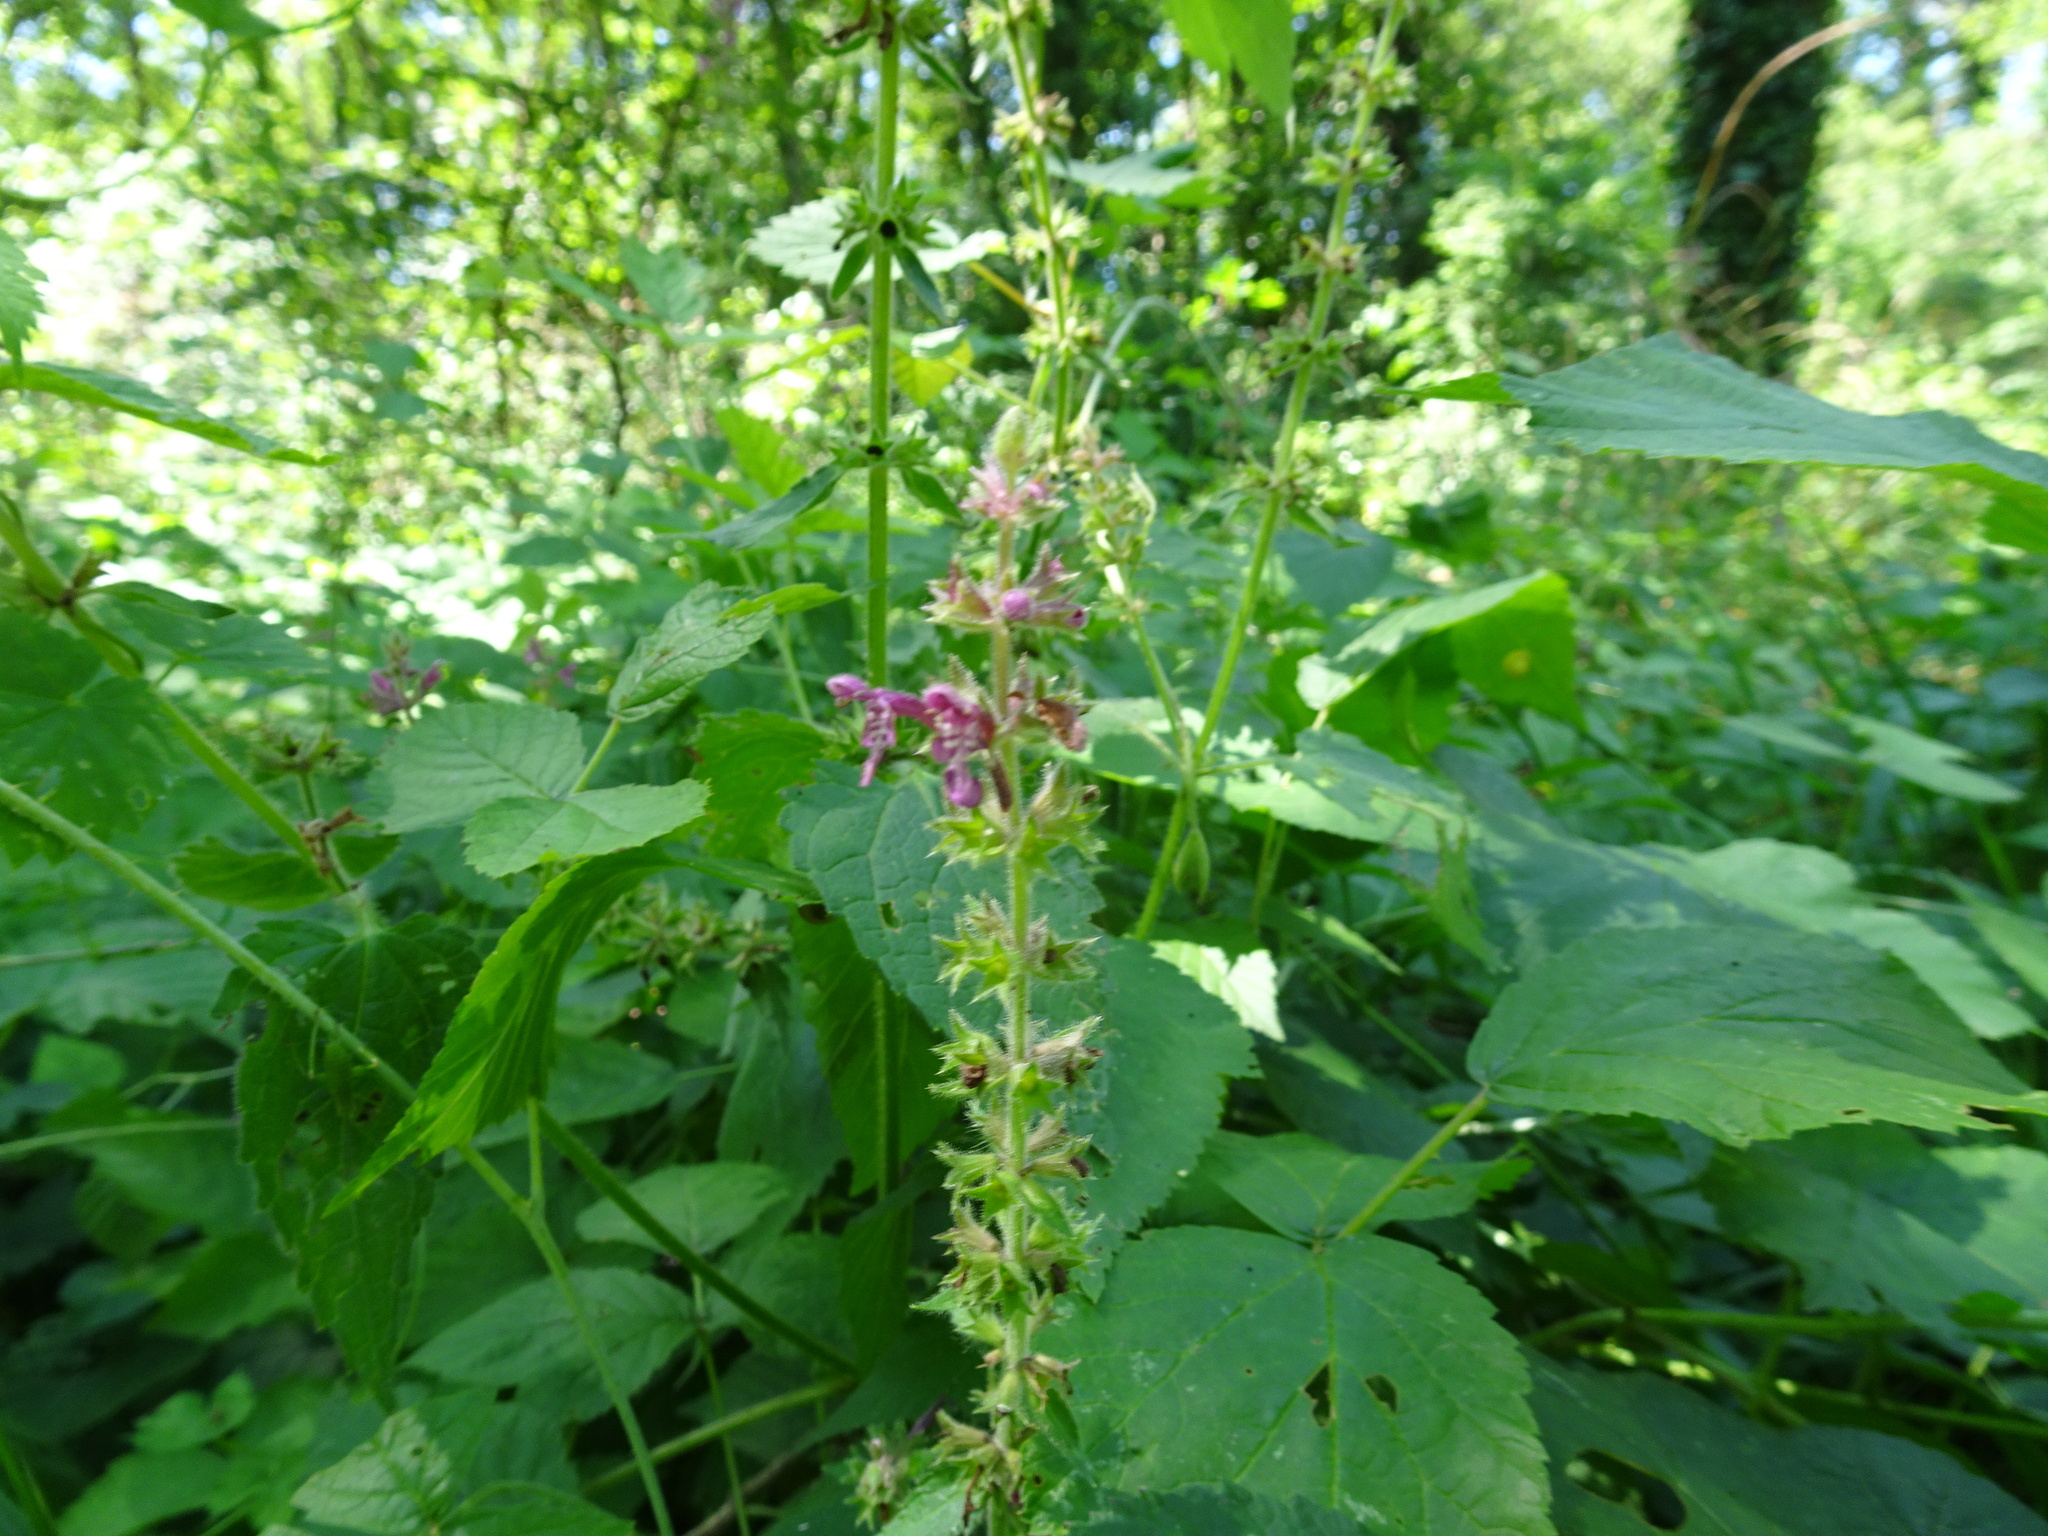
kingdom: Plantae
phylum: Tracheophyta
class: Magnoliopsida
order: Lamiales
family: Lamiaceae
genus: Stachys
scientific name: Stachys sylvatica
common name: Hedge woundwort
